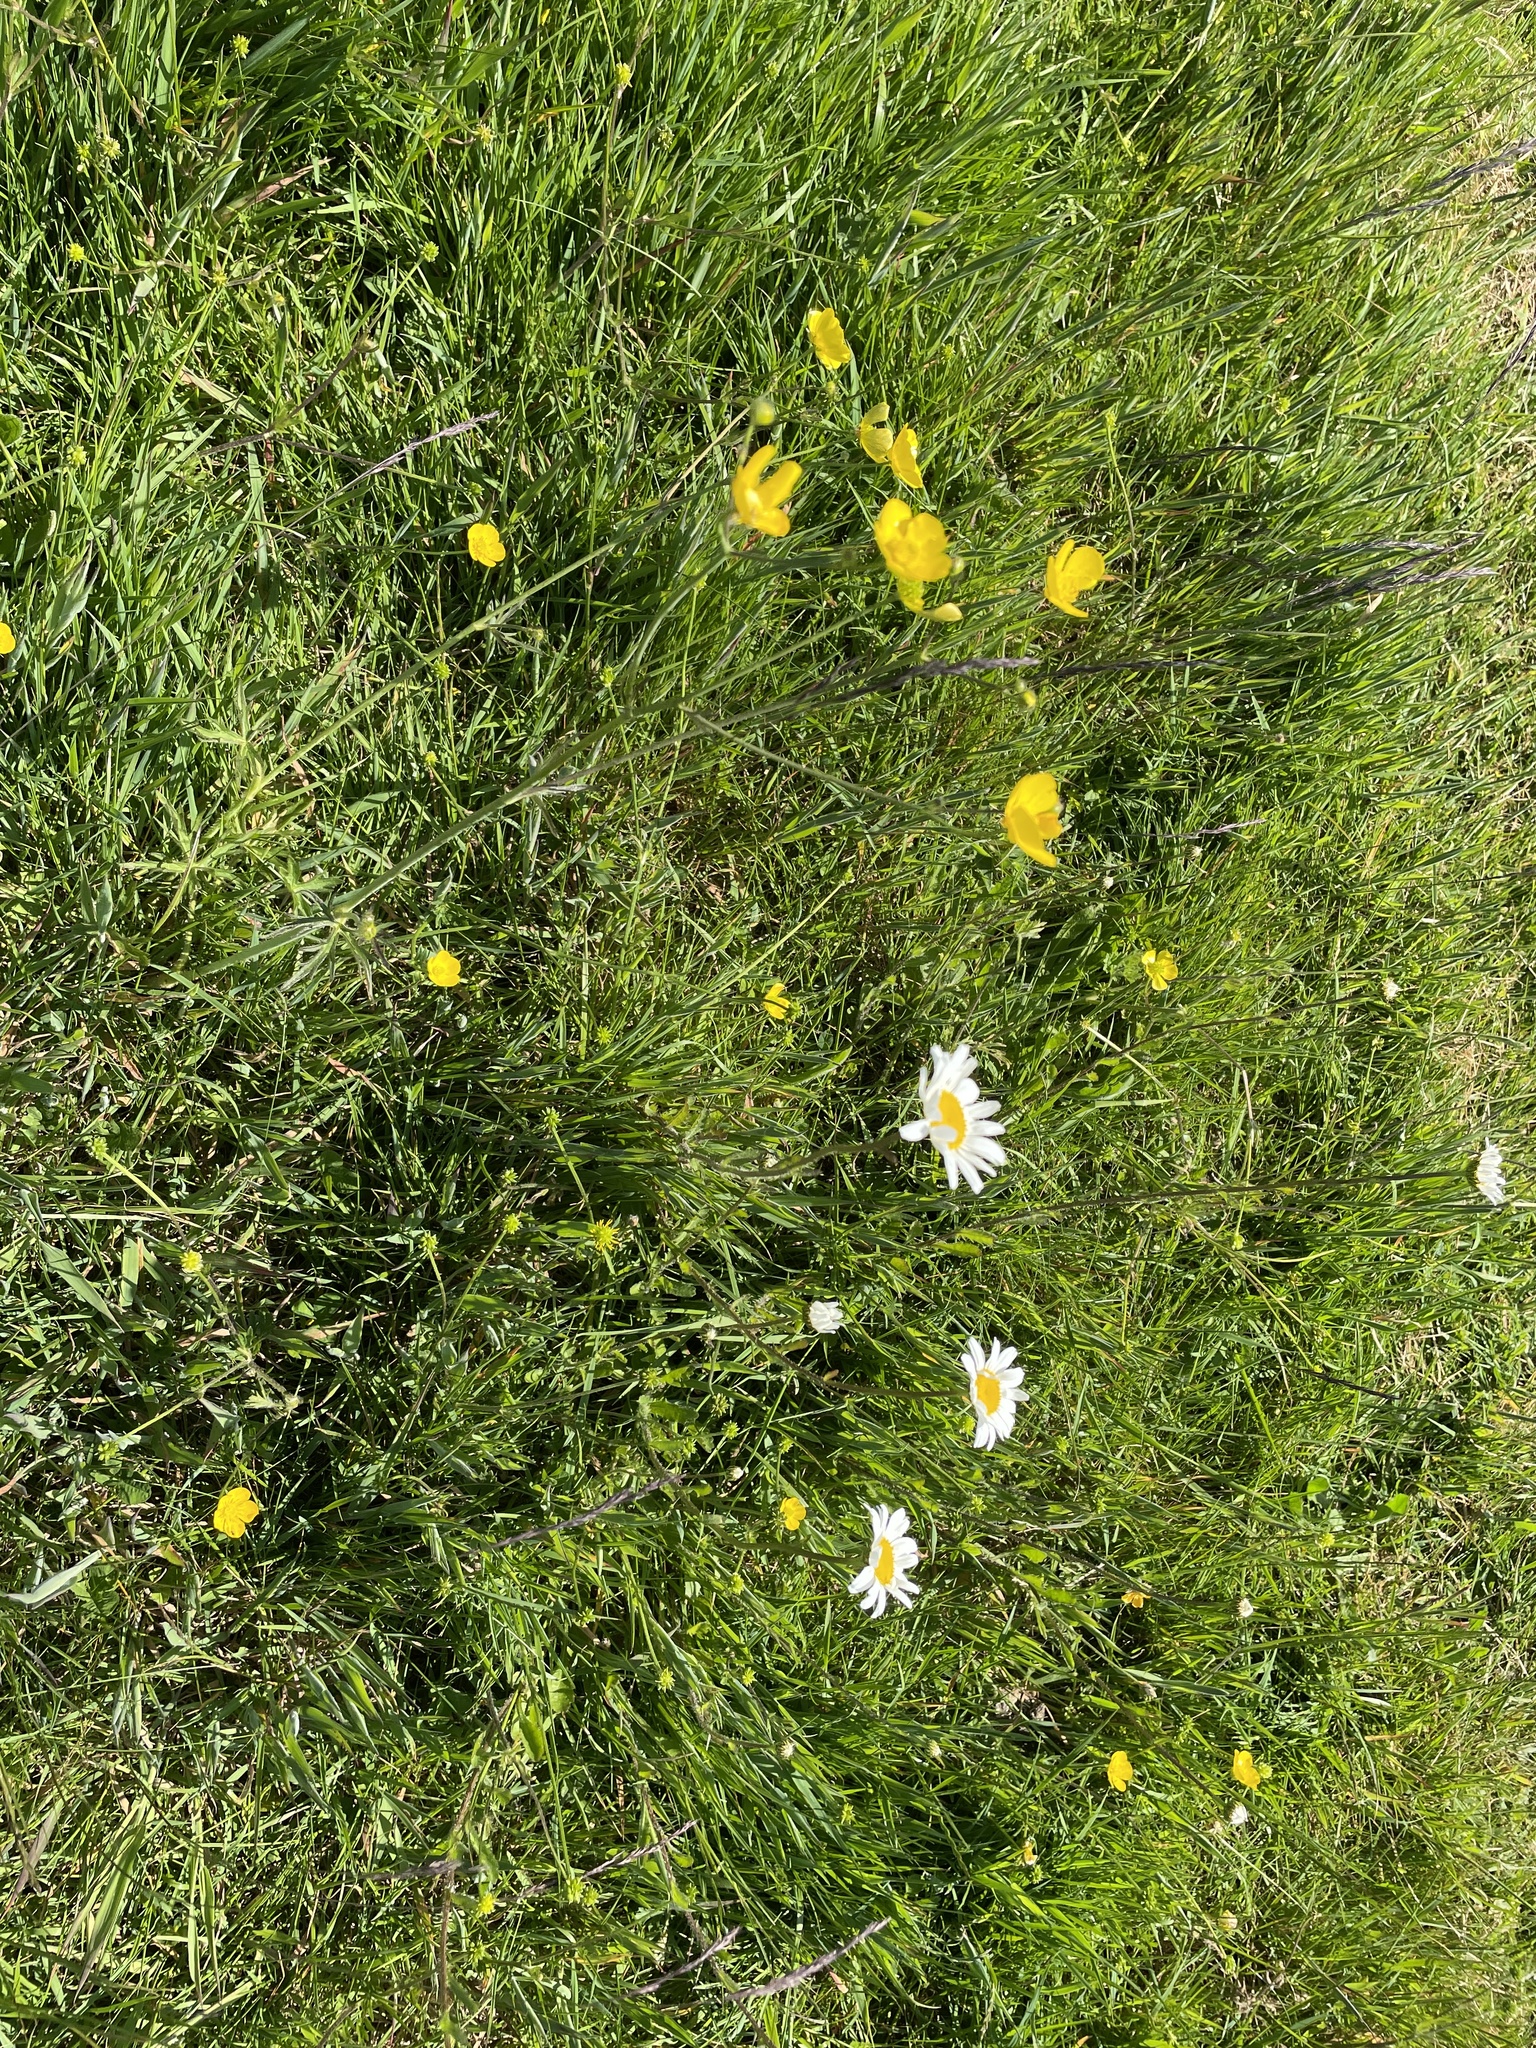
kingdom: Plantae
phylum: Tracheophyta
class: Magnoliopsida
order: Asterales
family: Asteraceae
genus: Leucanthemum
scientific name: Leucanthemum vulgare
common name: Oxeye daisy
